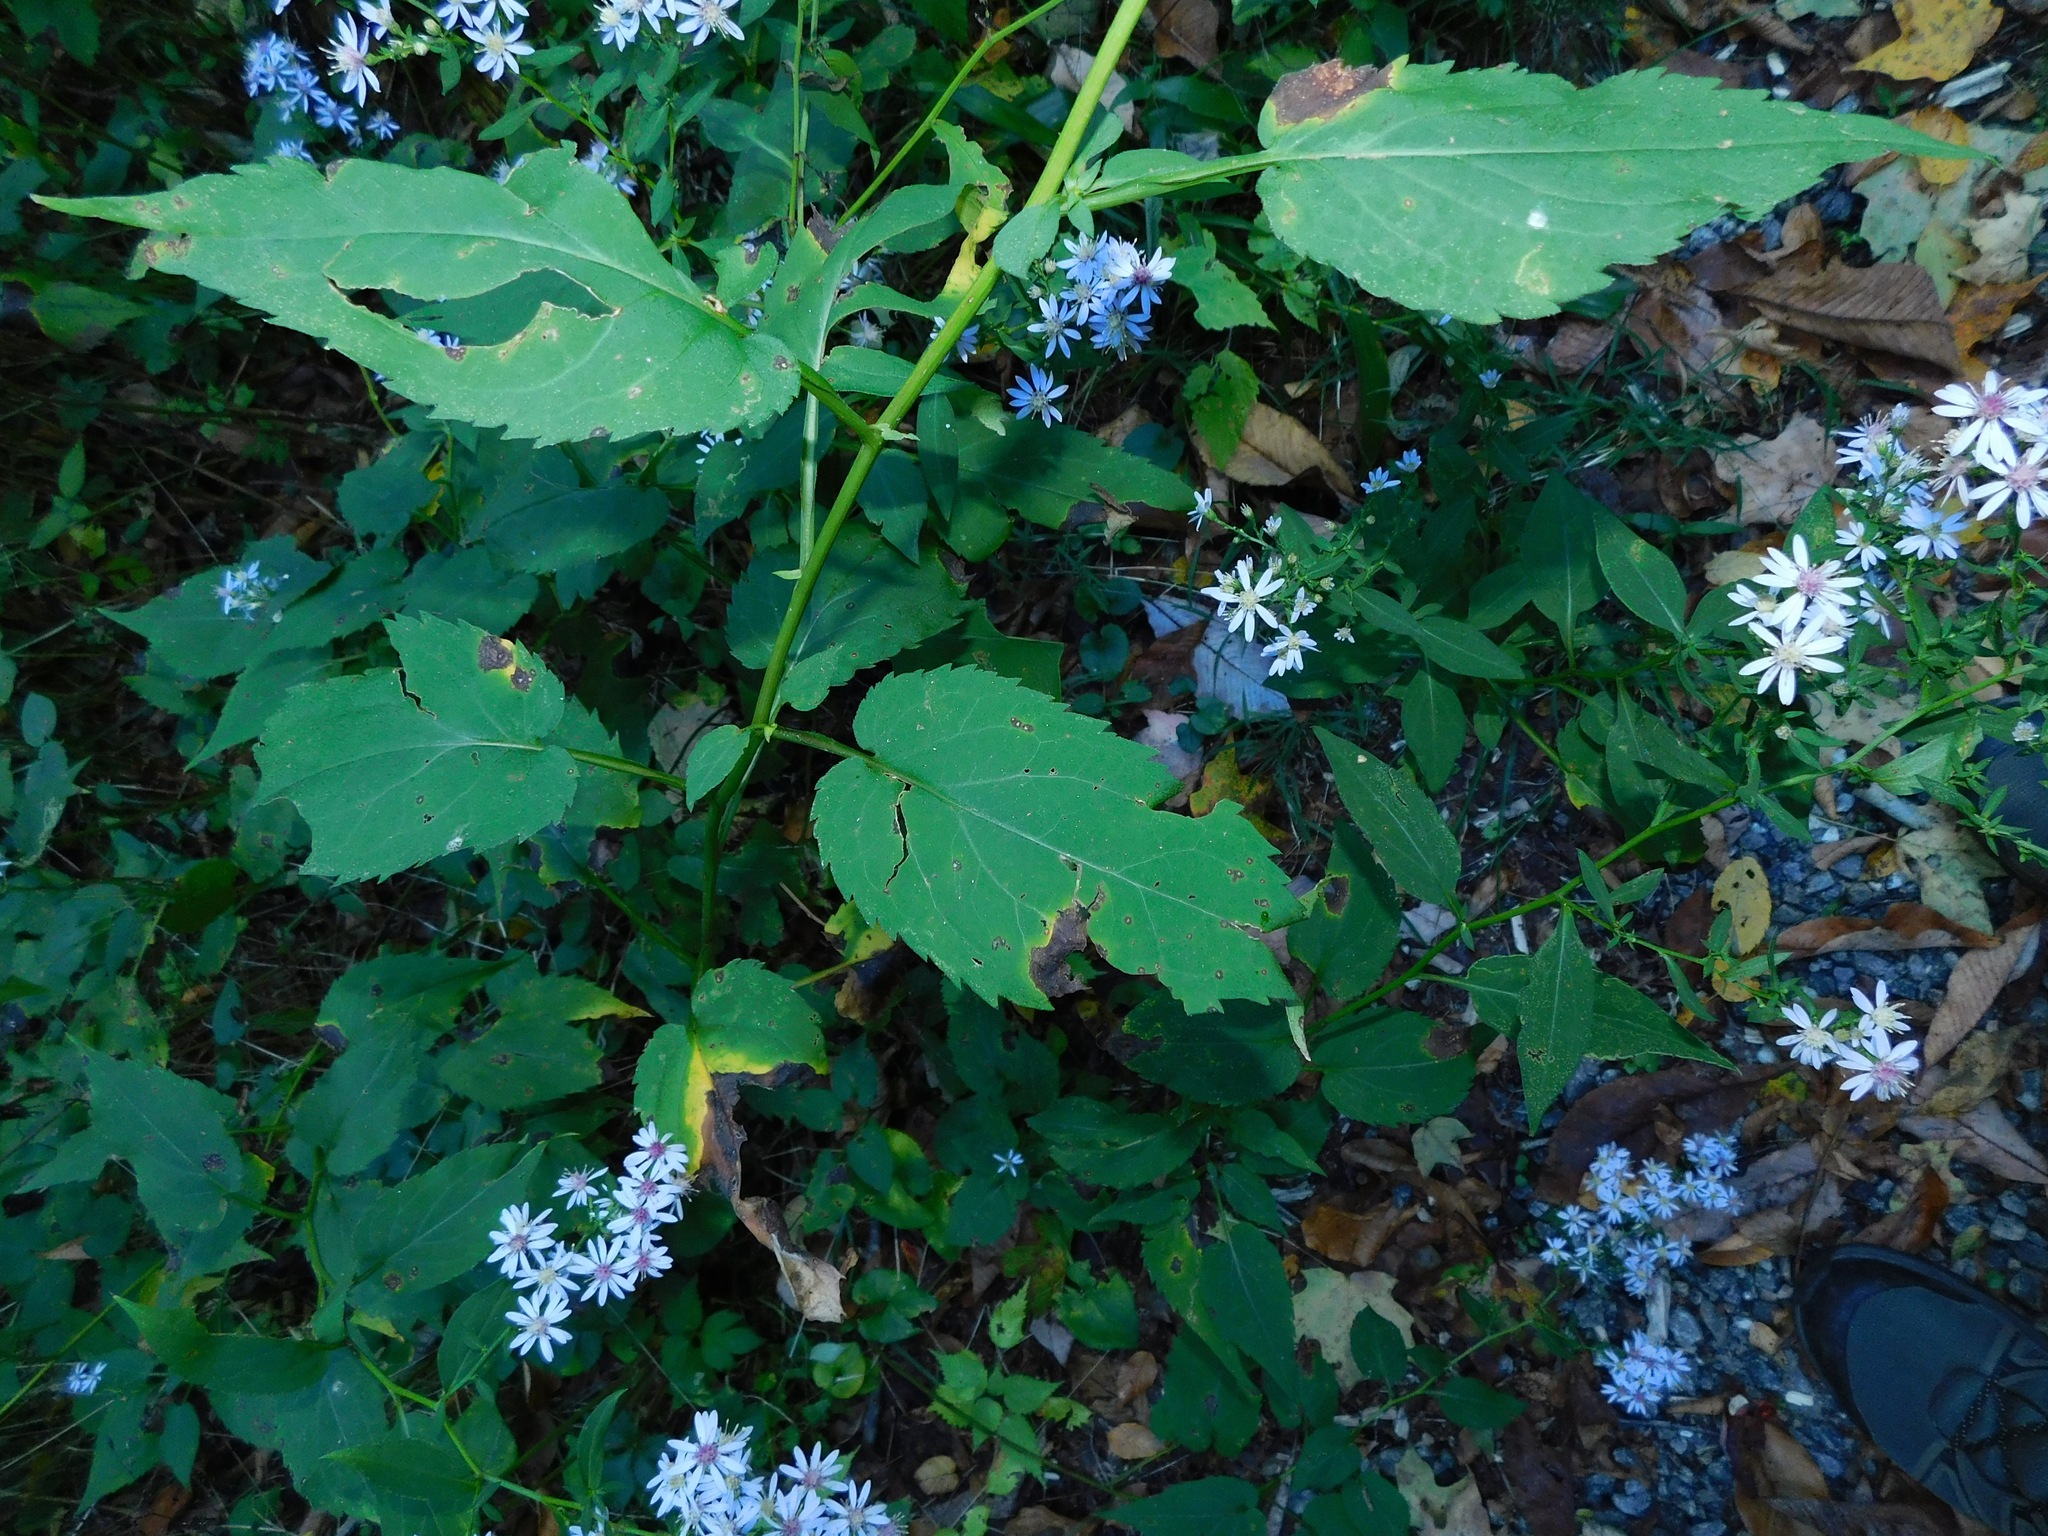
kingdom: Plantae
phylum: Tracheophyta
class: Magnoliopsida
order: Asterales
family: Asteraceae
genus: Symphyotrichum
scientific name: Symphyotrichum cordifolium
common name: Beeweed
